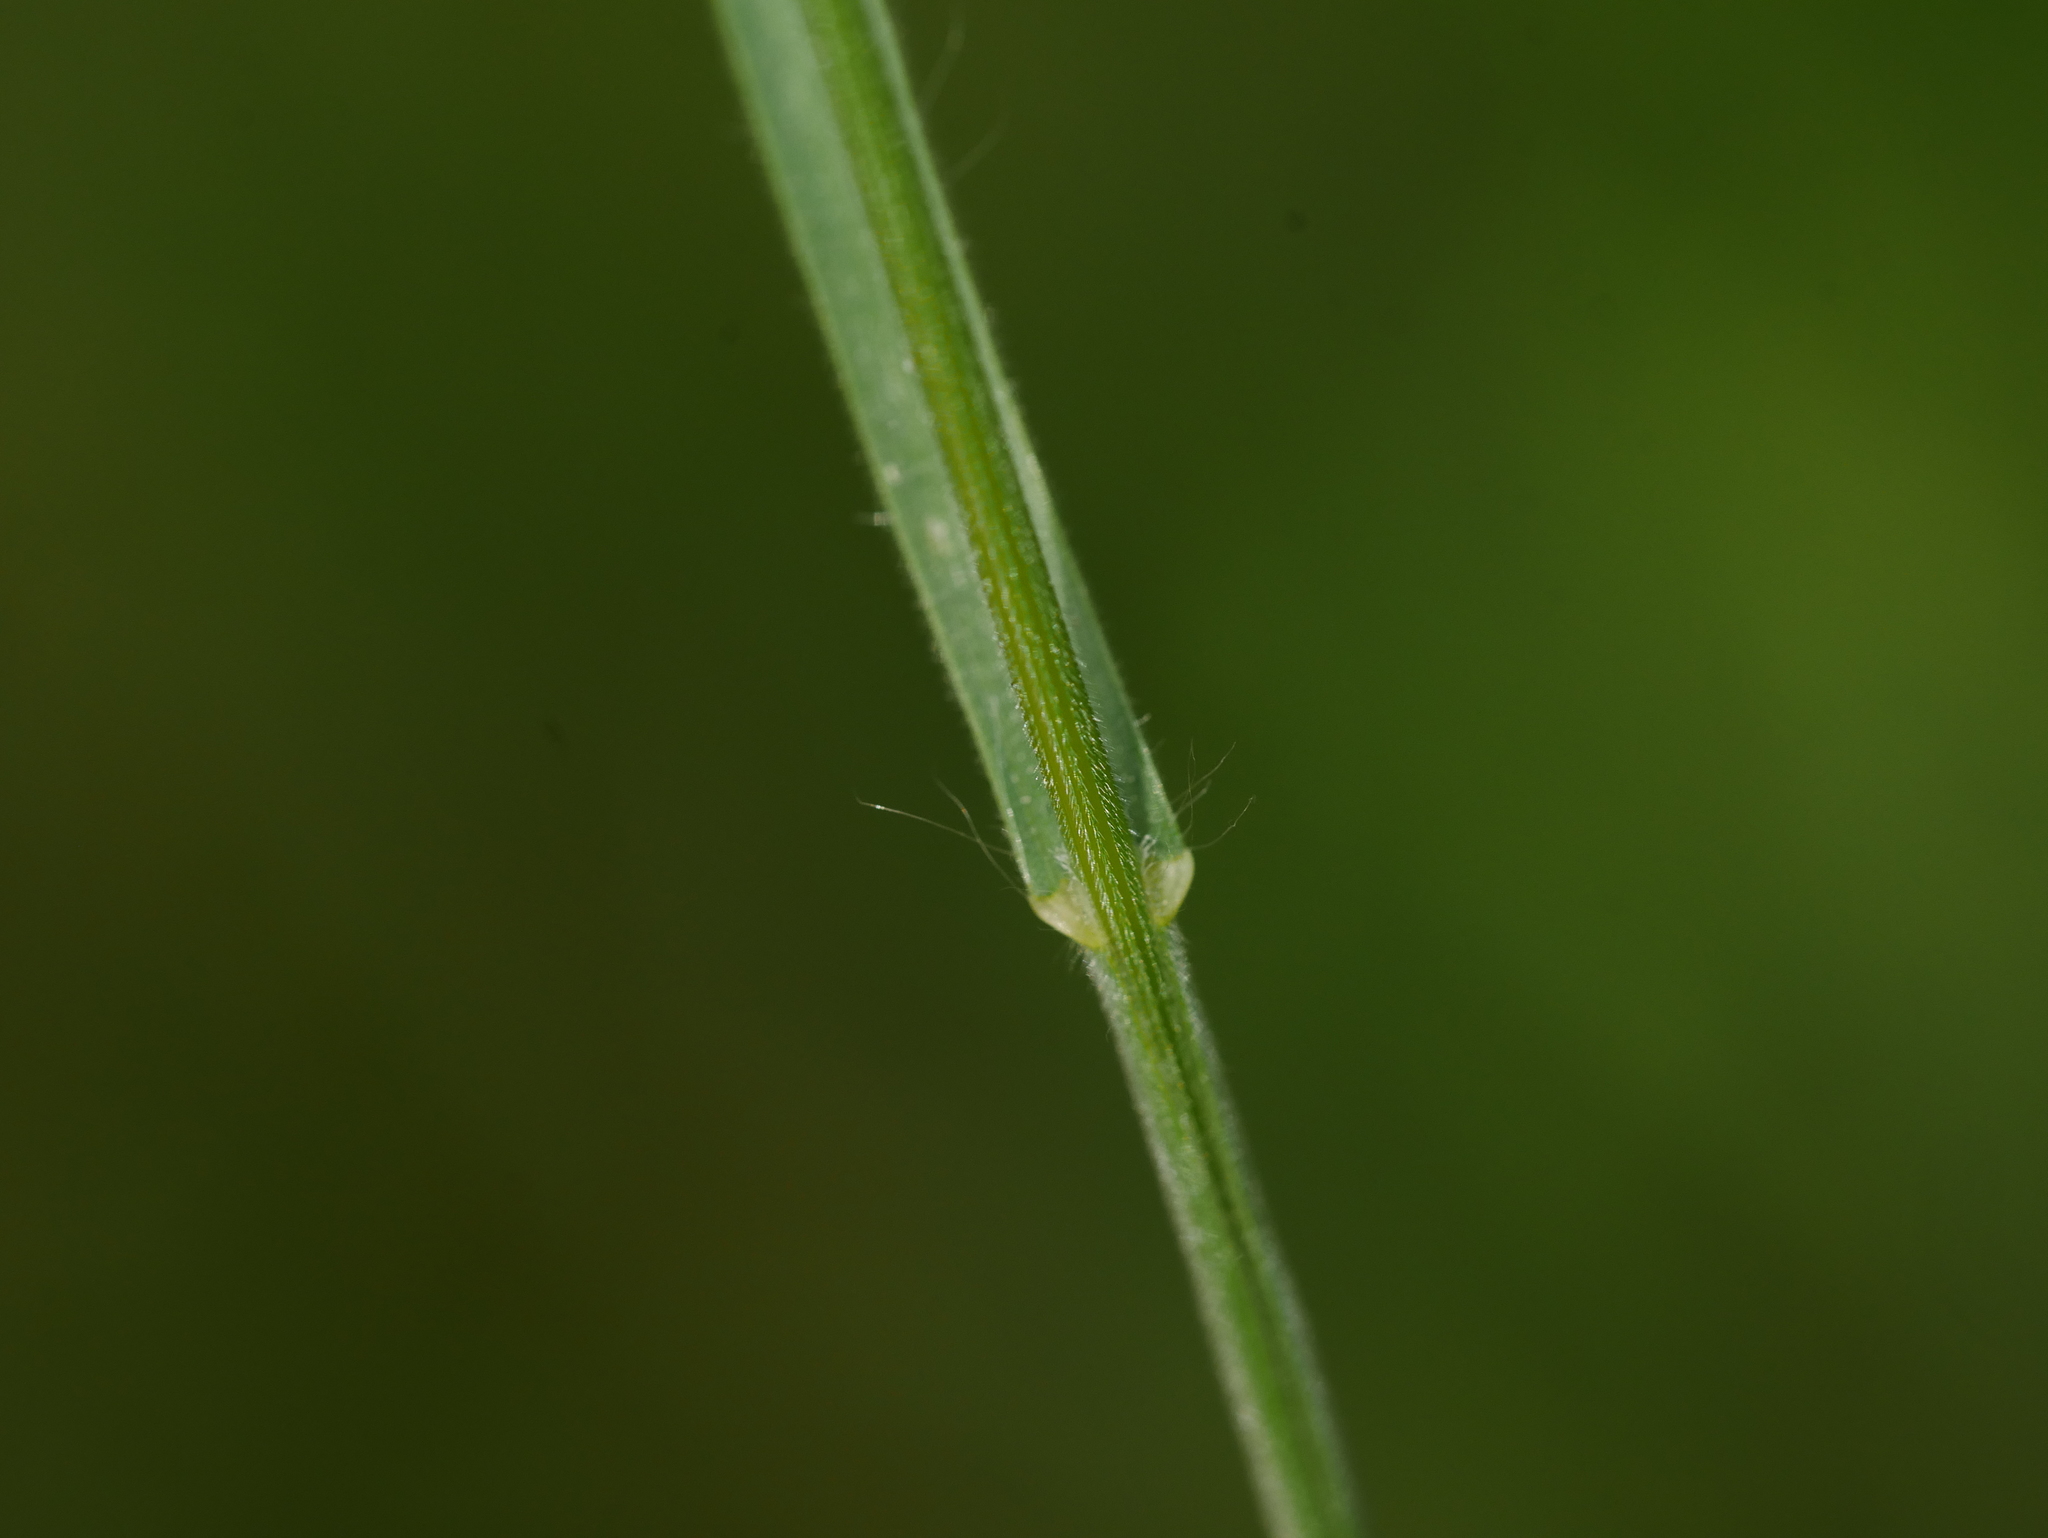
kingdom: Plantae
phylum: Tracheophyta
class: Liliopsida
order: Poales
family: Poaceae
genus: Bromus
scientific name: Bromus hordeaceus
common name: Soft brome
